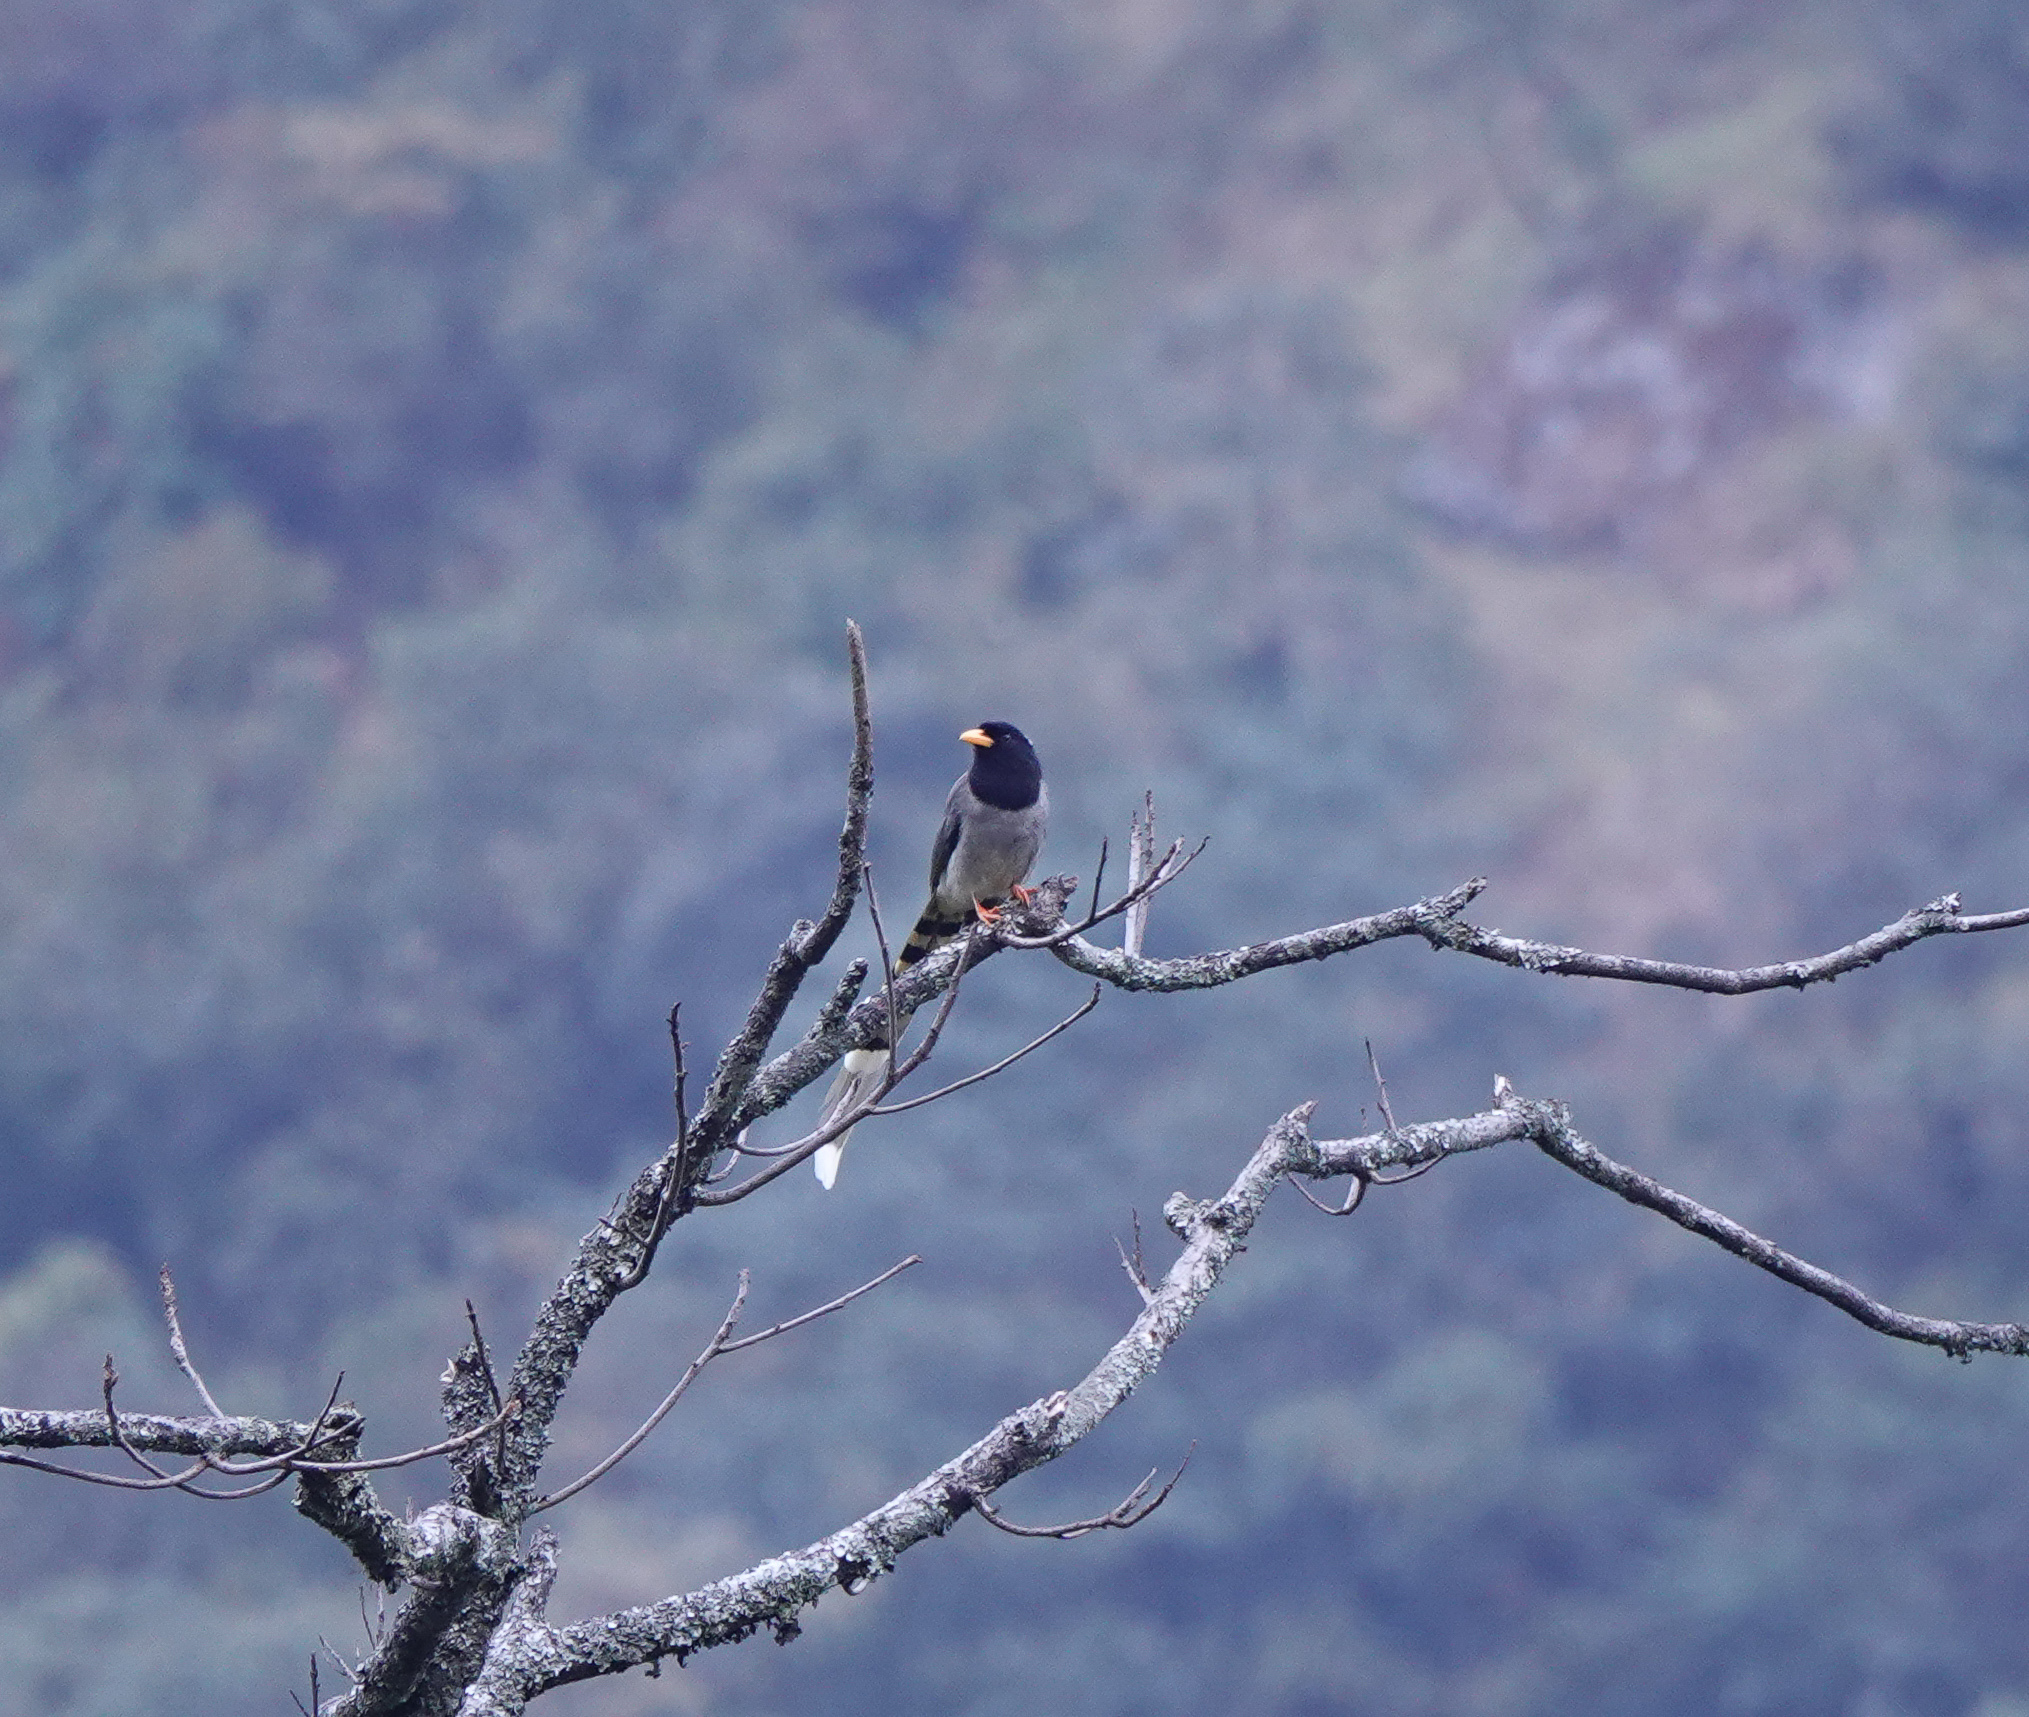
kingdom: Animalia
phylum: Chordata
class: Aves
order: Passeriformes
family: Corvidae
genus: Urocissa
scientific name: Urocissa flavirostris
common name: Yellow-billed blue magpie
